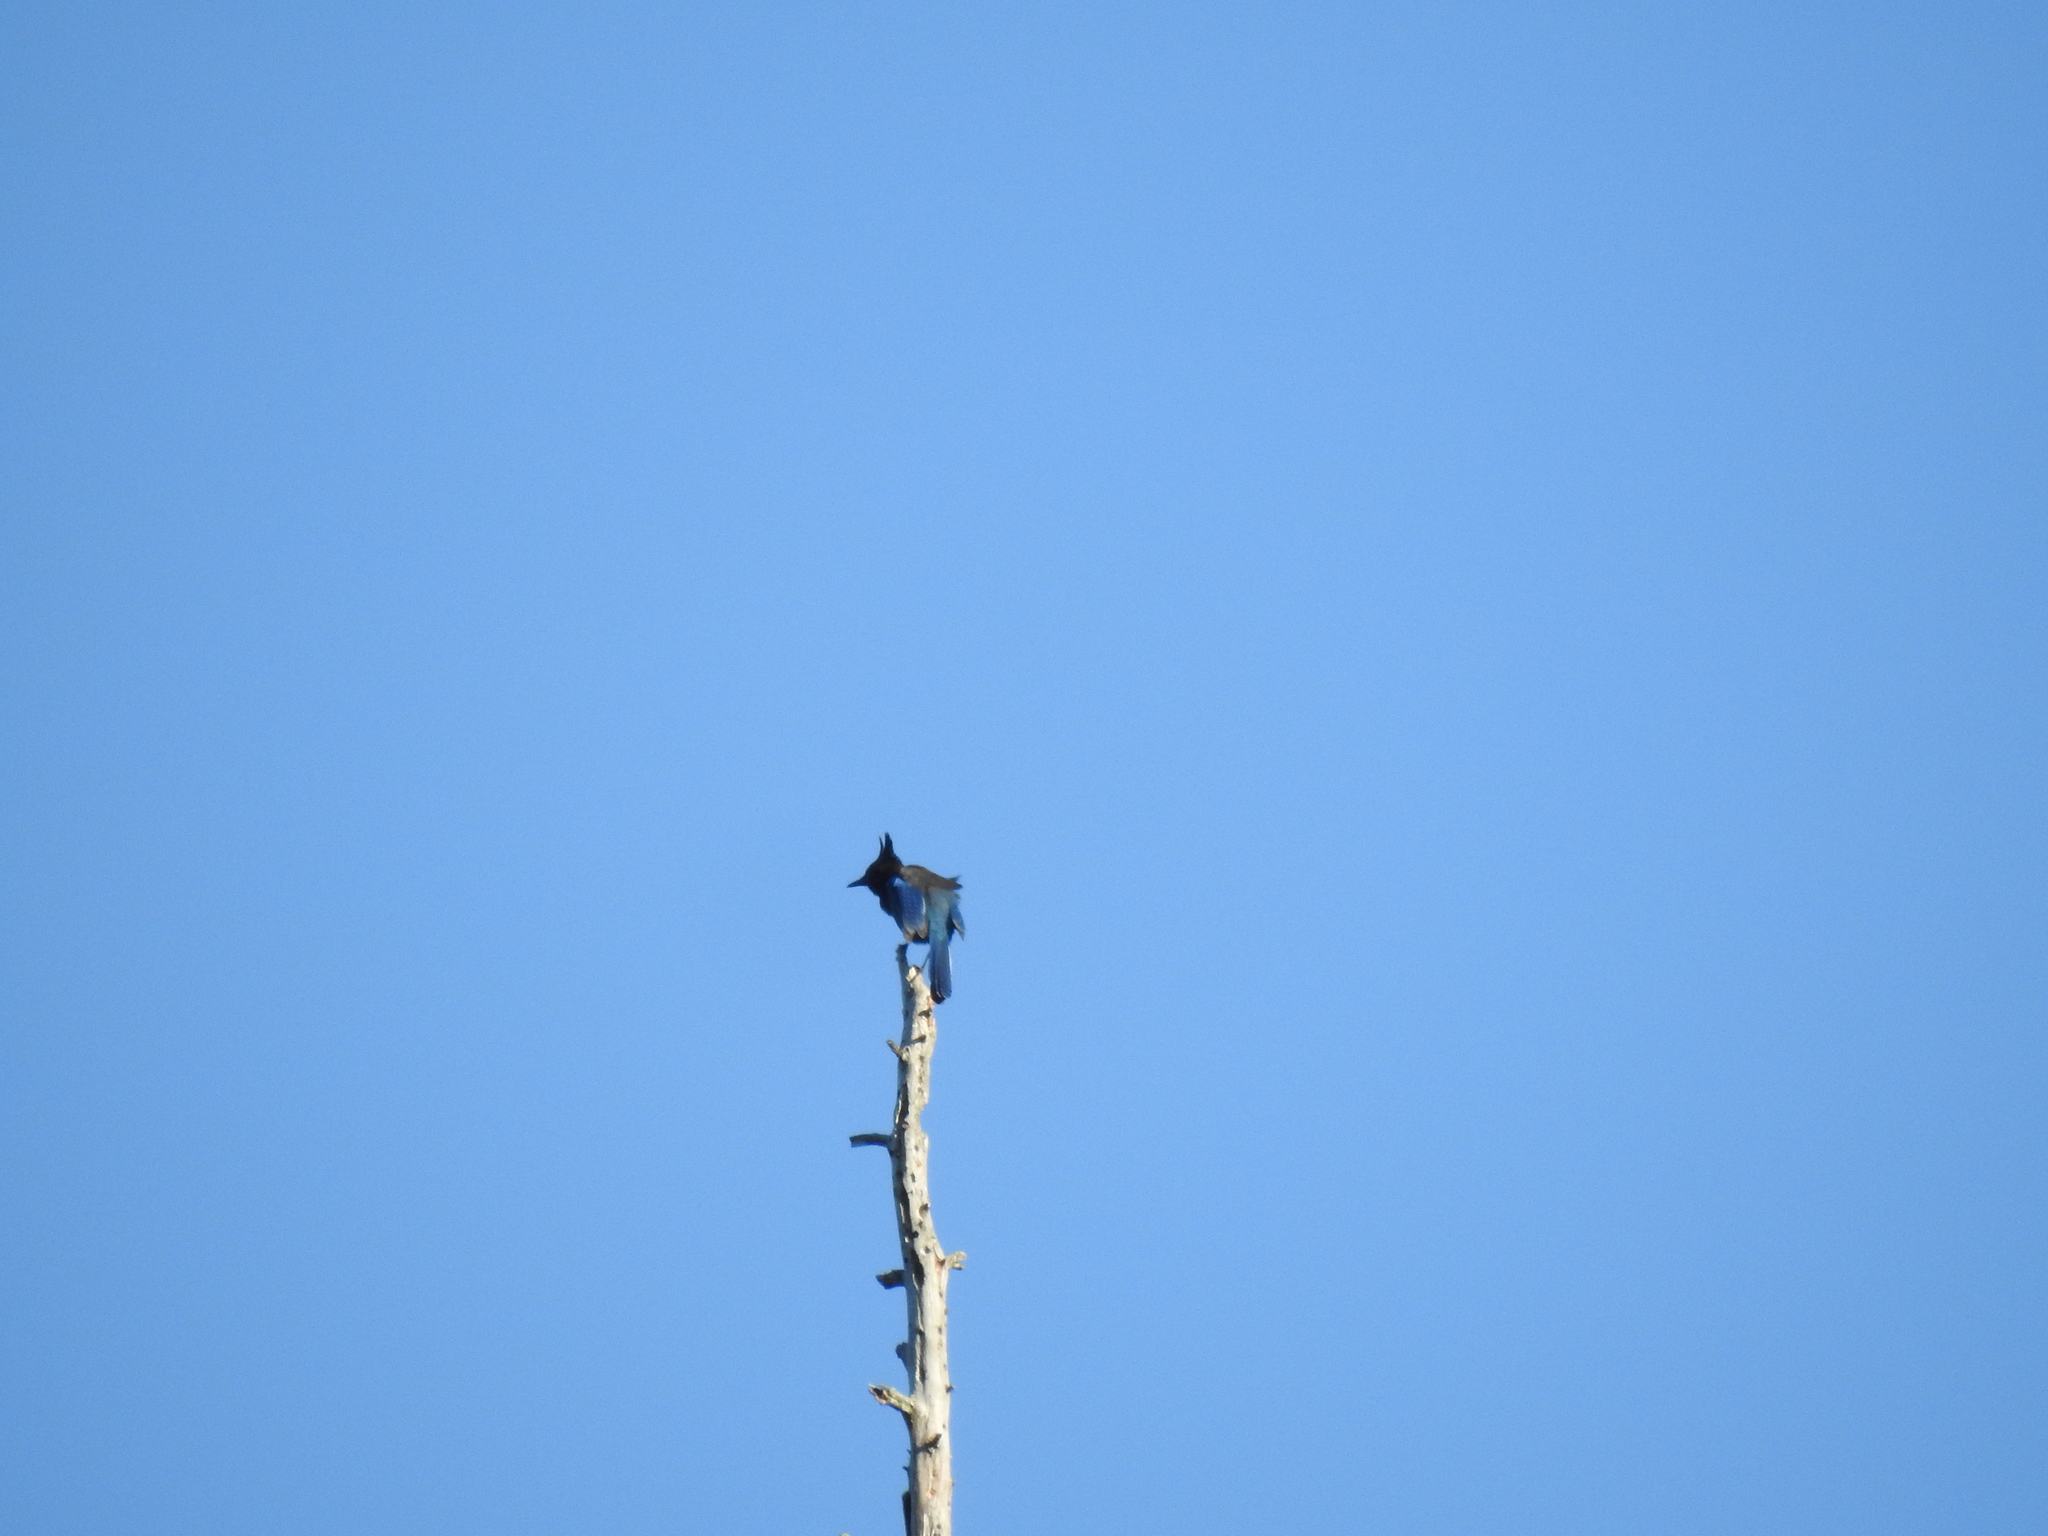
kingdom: Animalia
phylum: Chordata
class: Aves
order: Passeriformes
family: Corvidae
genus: Cyanocitta
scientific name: Cyanocitta stelleri
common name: Steller's jay
